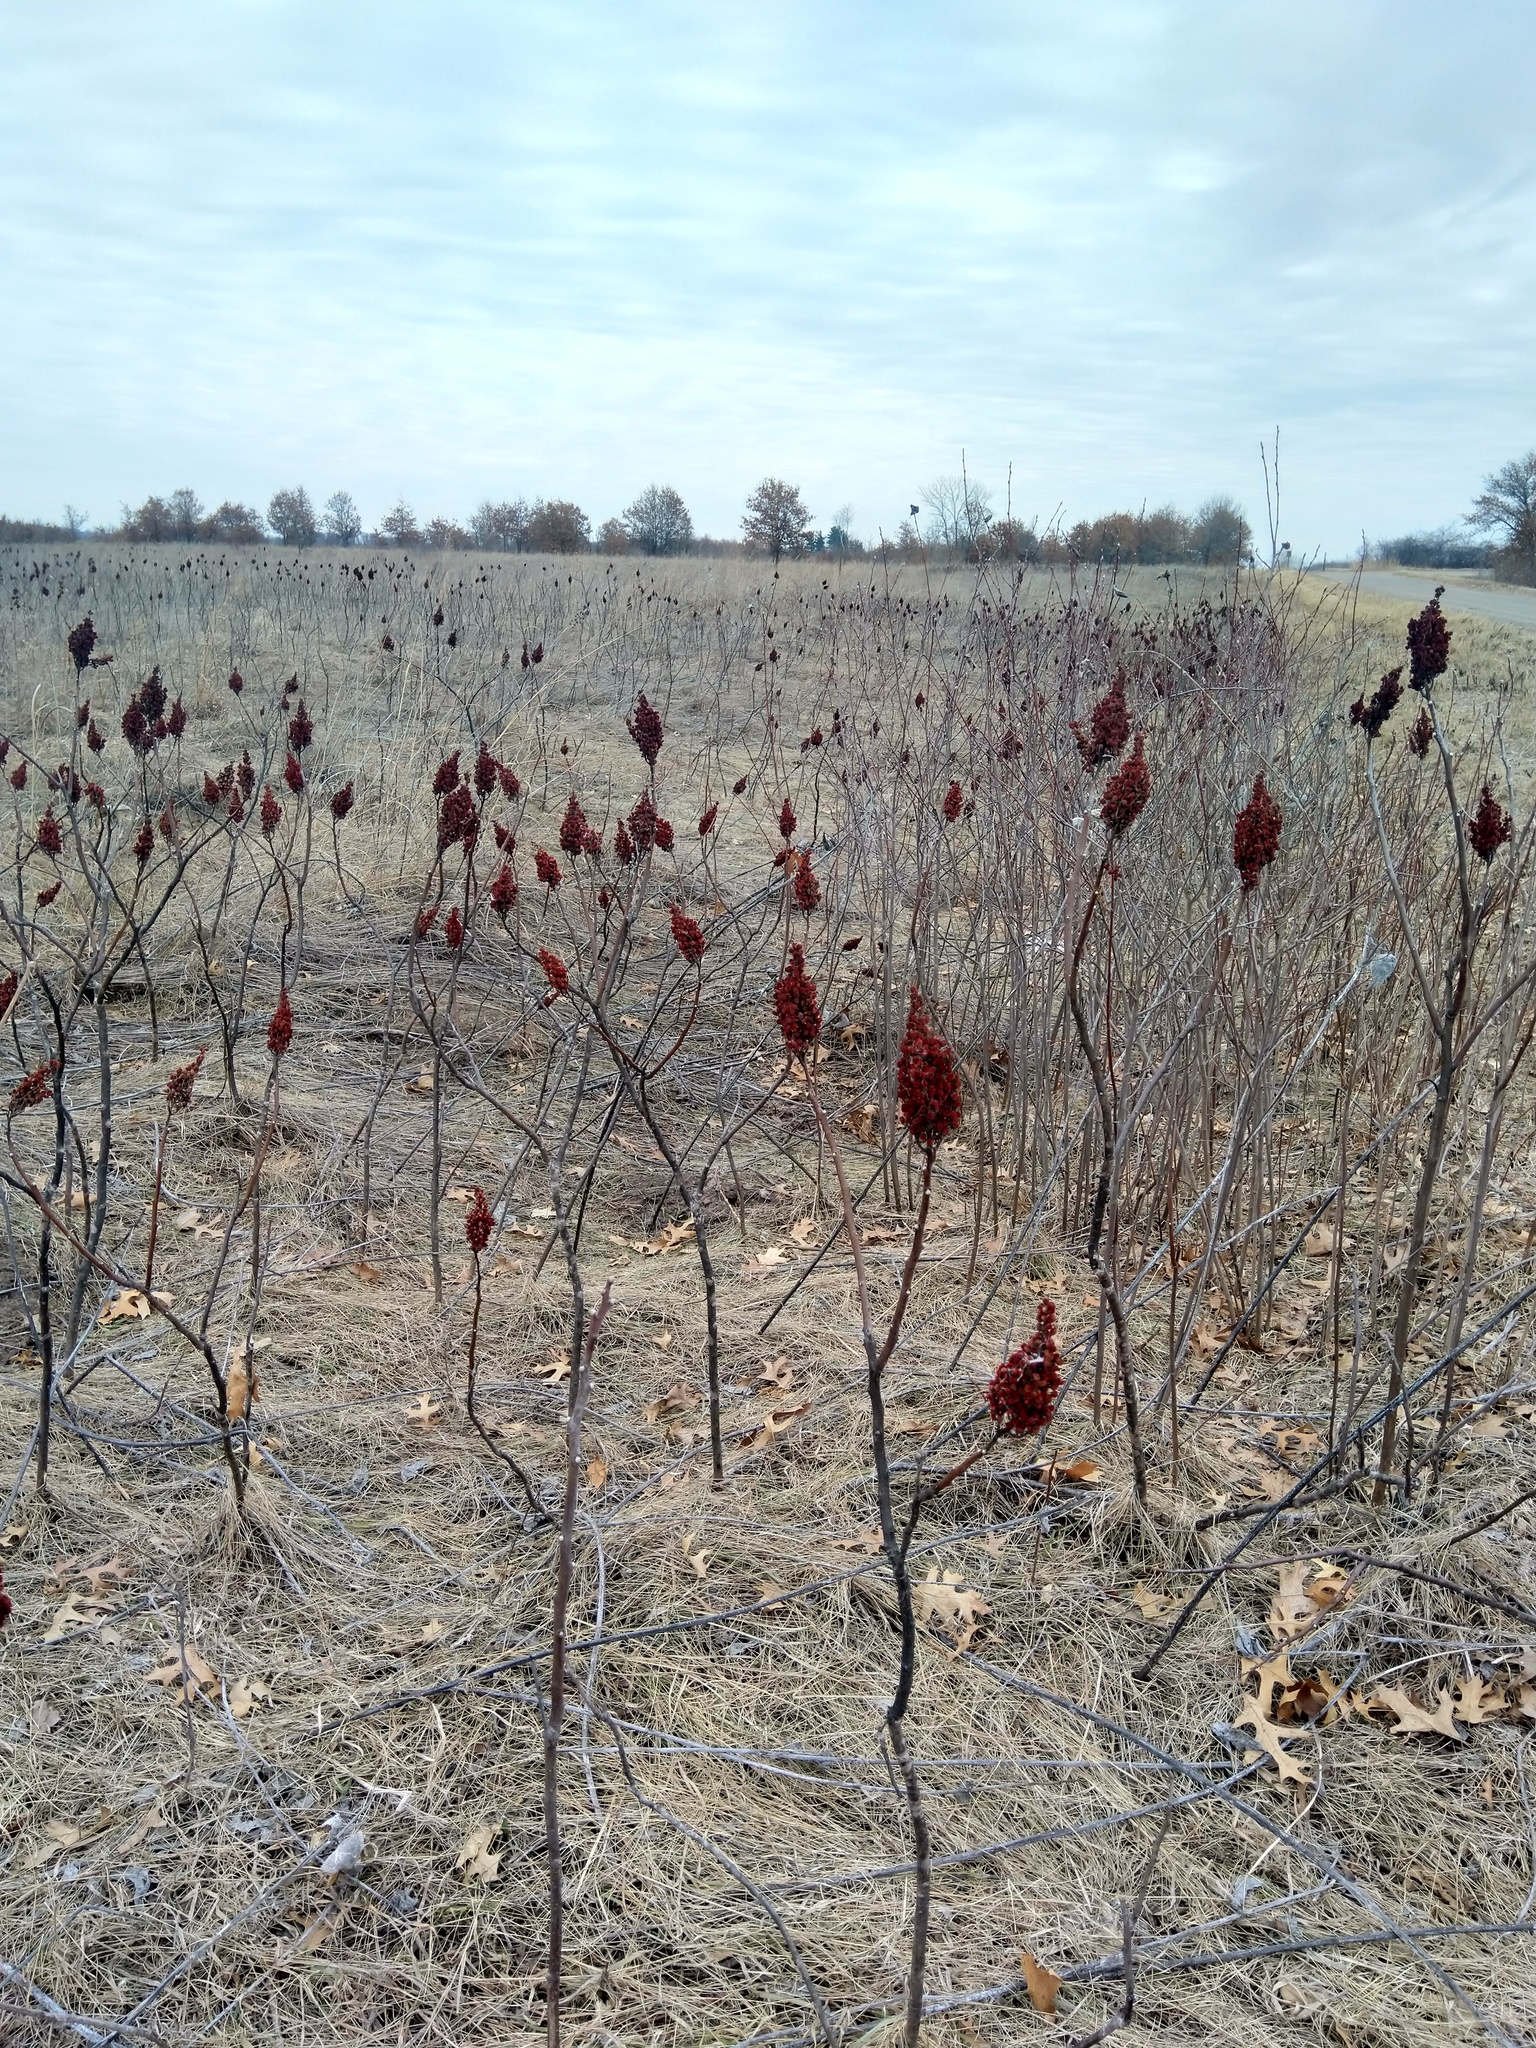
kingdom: Plantae
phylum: Tracheophyta
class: Magnoliopsida
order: Sapindales
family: Anacardiaceae
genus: Rhus
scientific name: Rhus glabra
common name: Scarlet sumac
